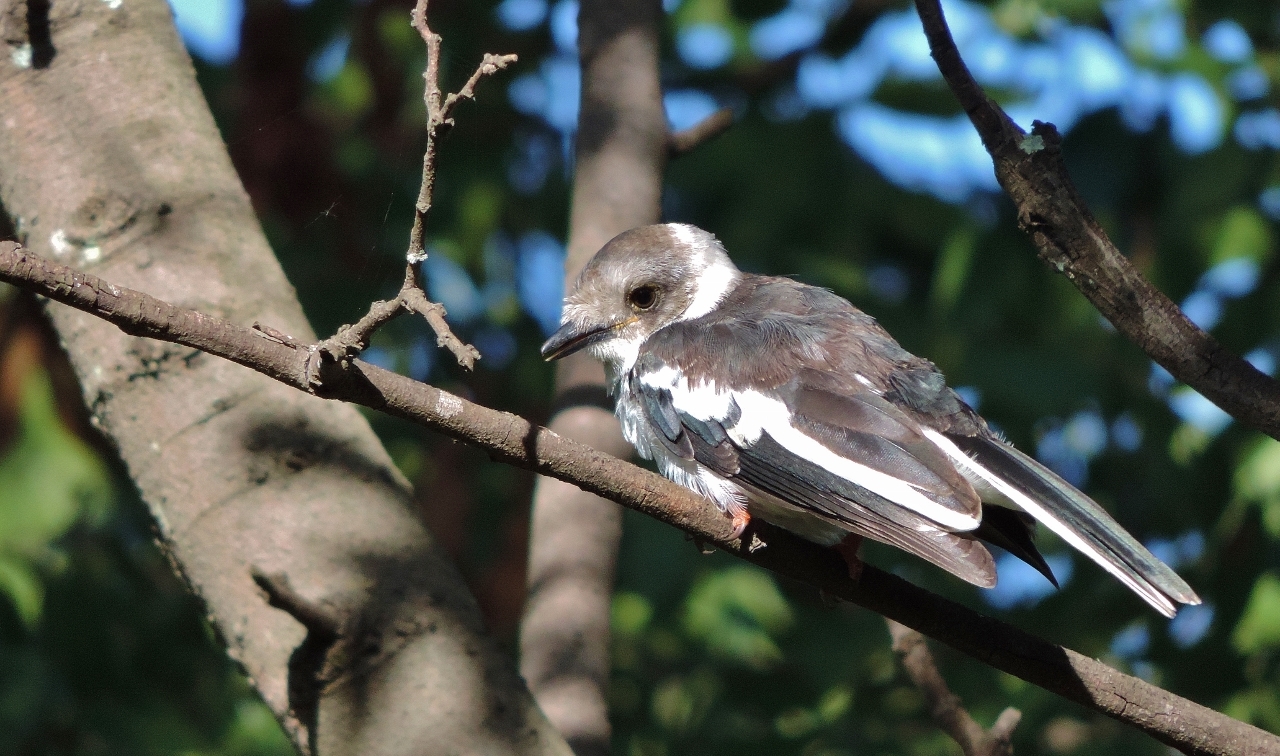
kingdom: Animalia
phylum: Chordata
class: Aves
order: Passeriformes
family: Prionopidae
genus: Prionops
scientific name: Prionops plumatus
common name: White-crested helmetshrike
